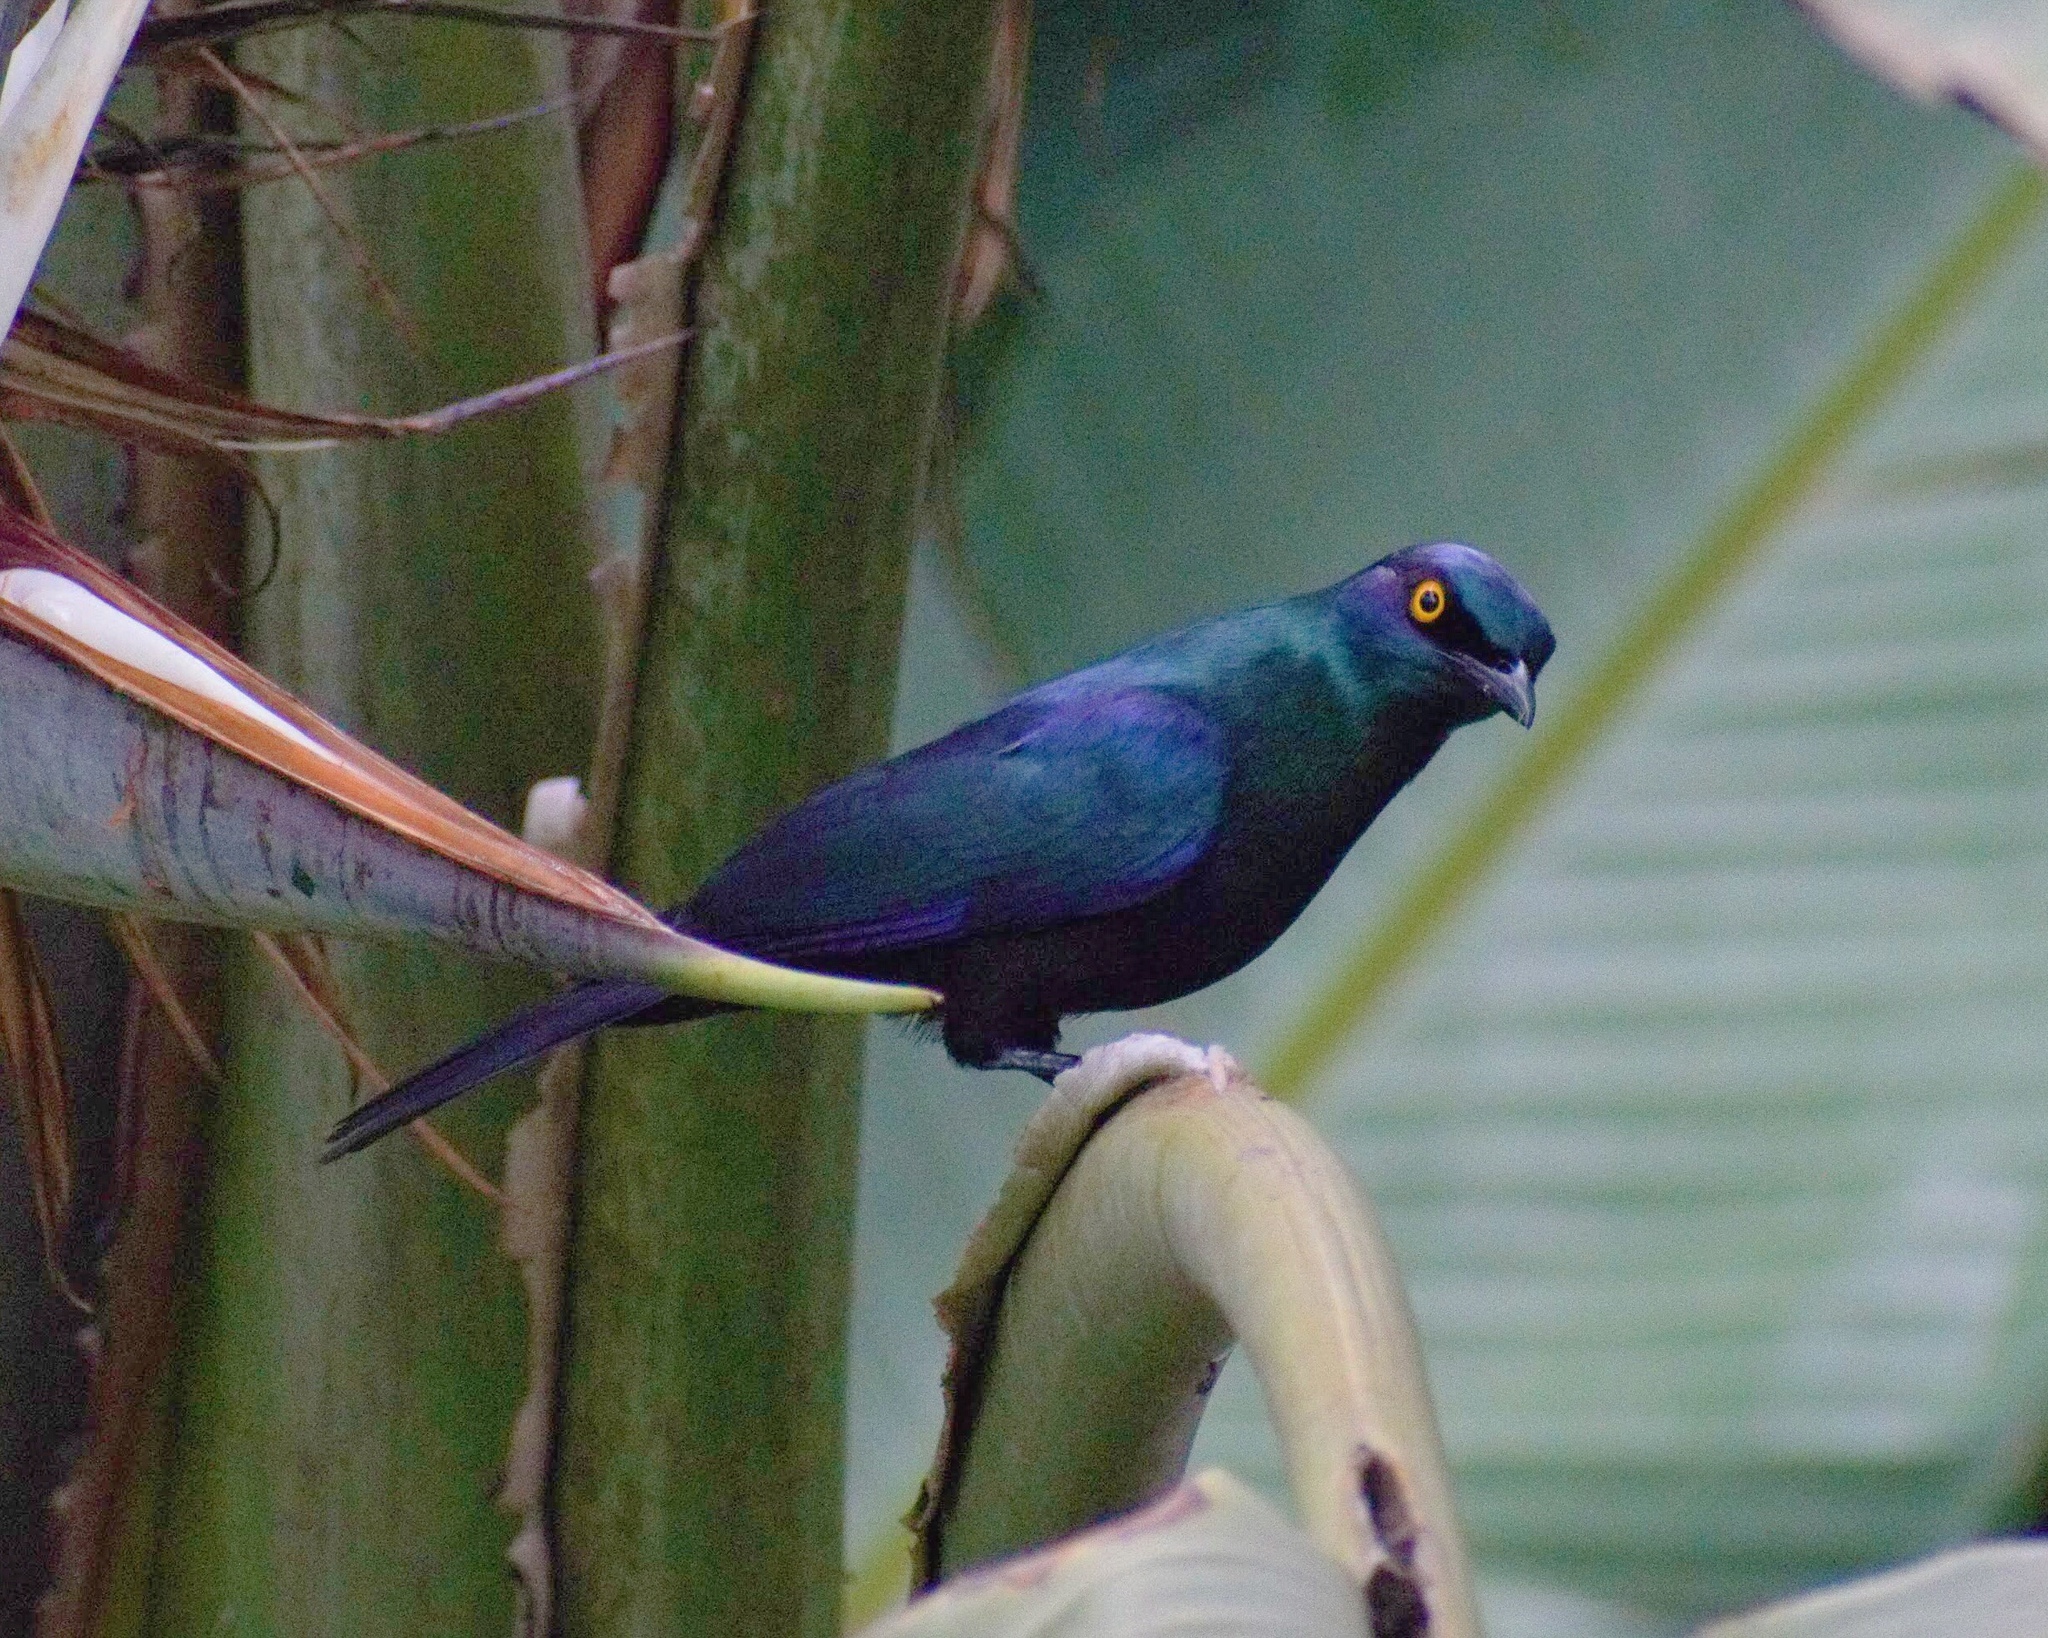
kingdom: Animalia
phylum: Chordata
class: Aves
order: Passeriformes
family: Sturnidae
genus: Notopholia
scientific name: Notopholia corrusca
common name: Black-bellied starling
